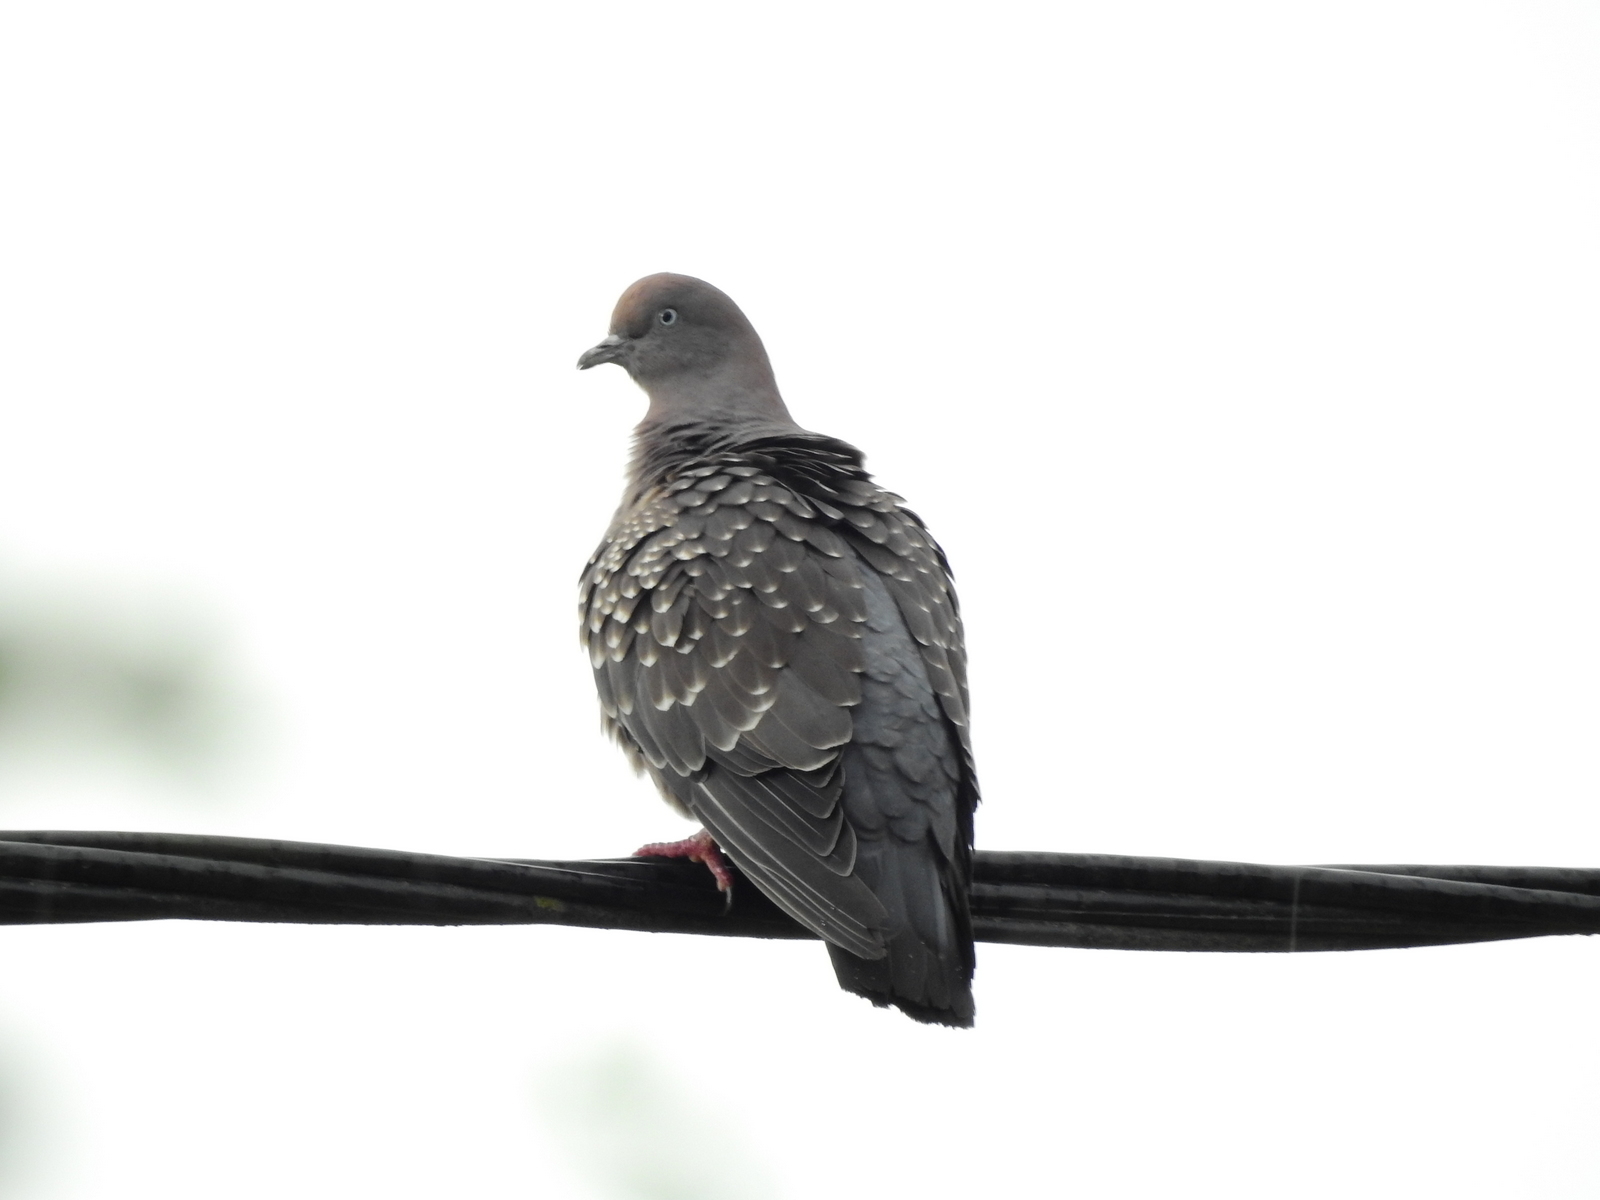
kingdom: Animalia
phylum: Chordata
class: Aves
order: Columbiformes
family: Columbidae
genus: Patagioenas
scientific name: Patagioenas maculosa
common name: Spot-winged pigeon
